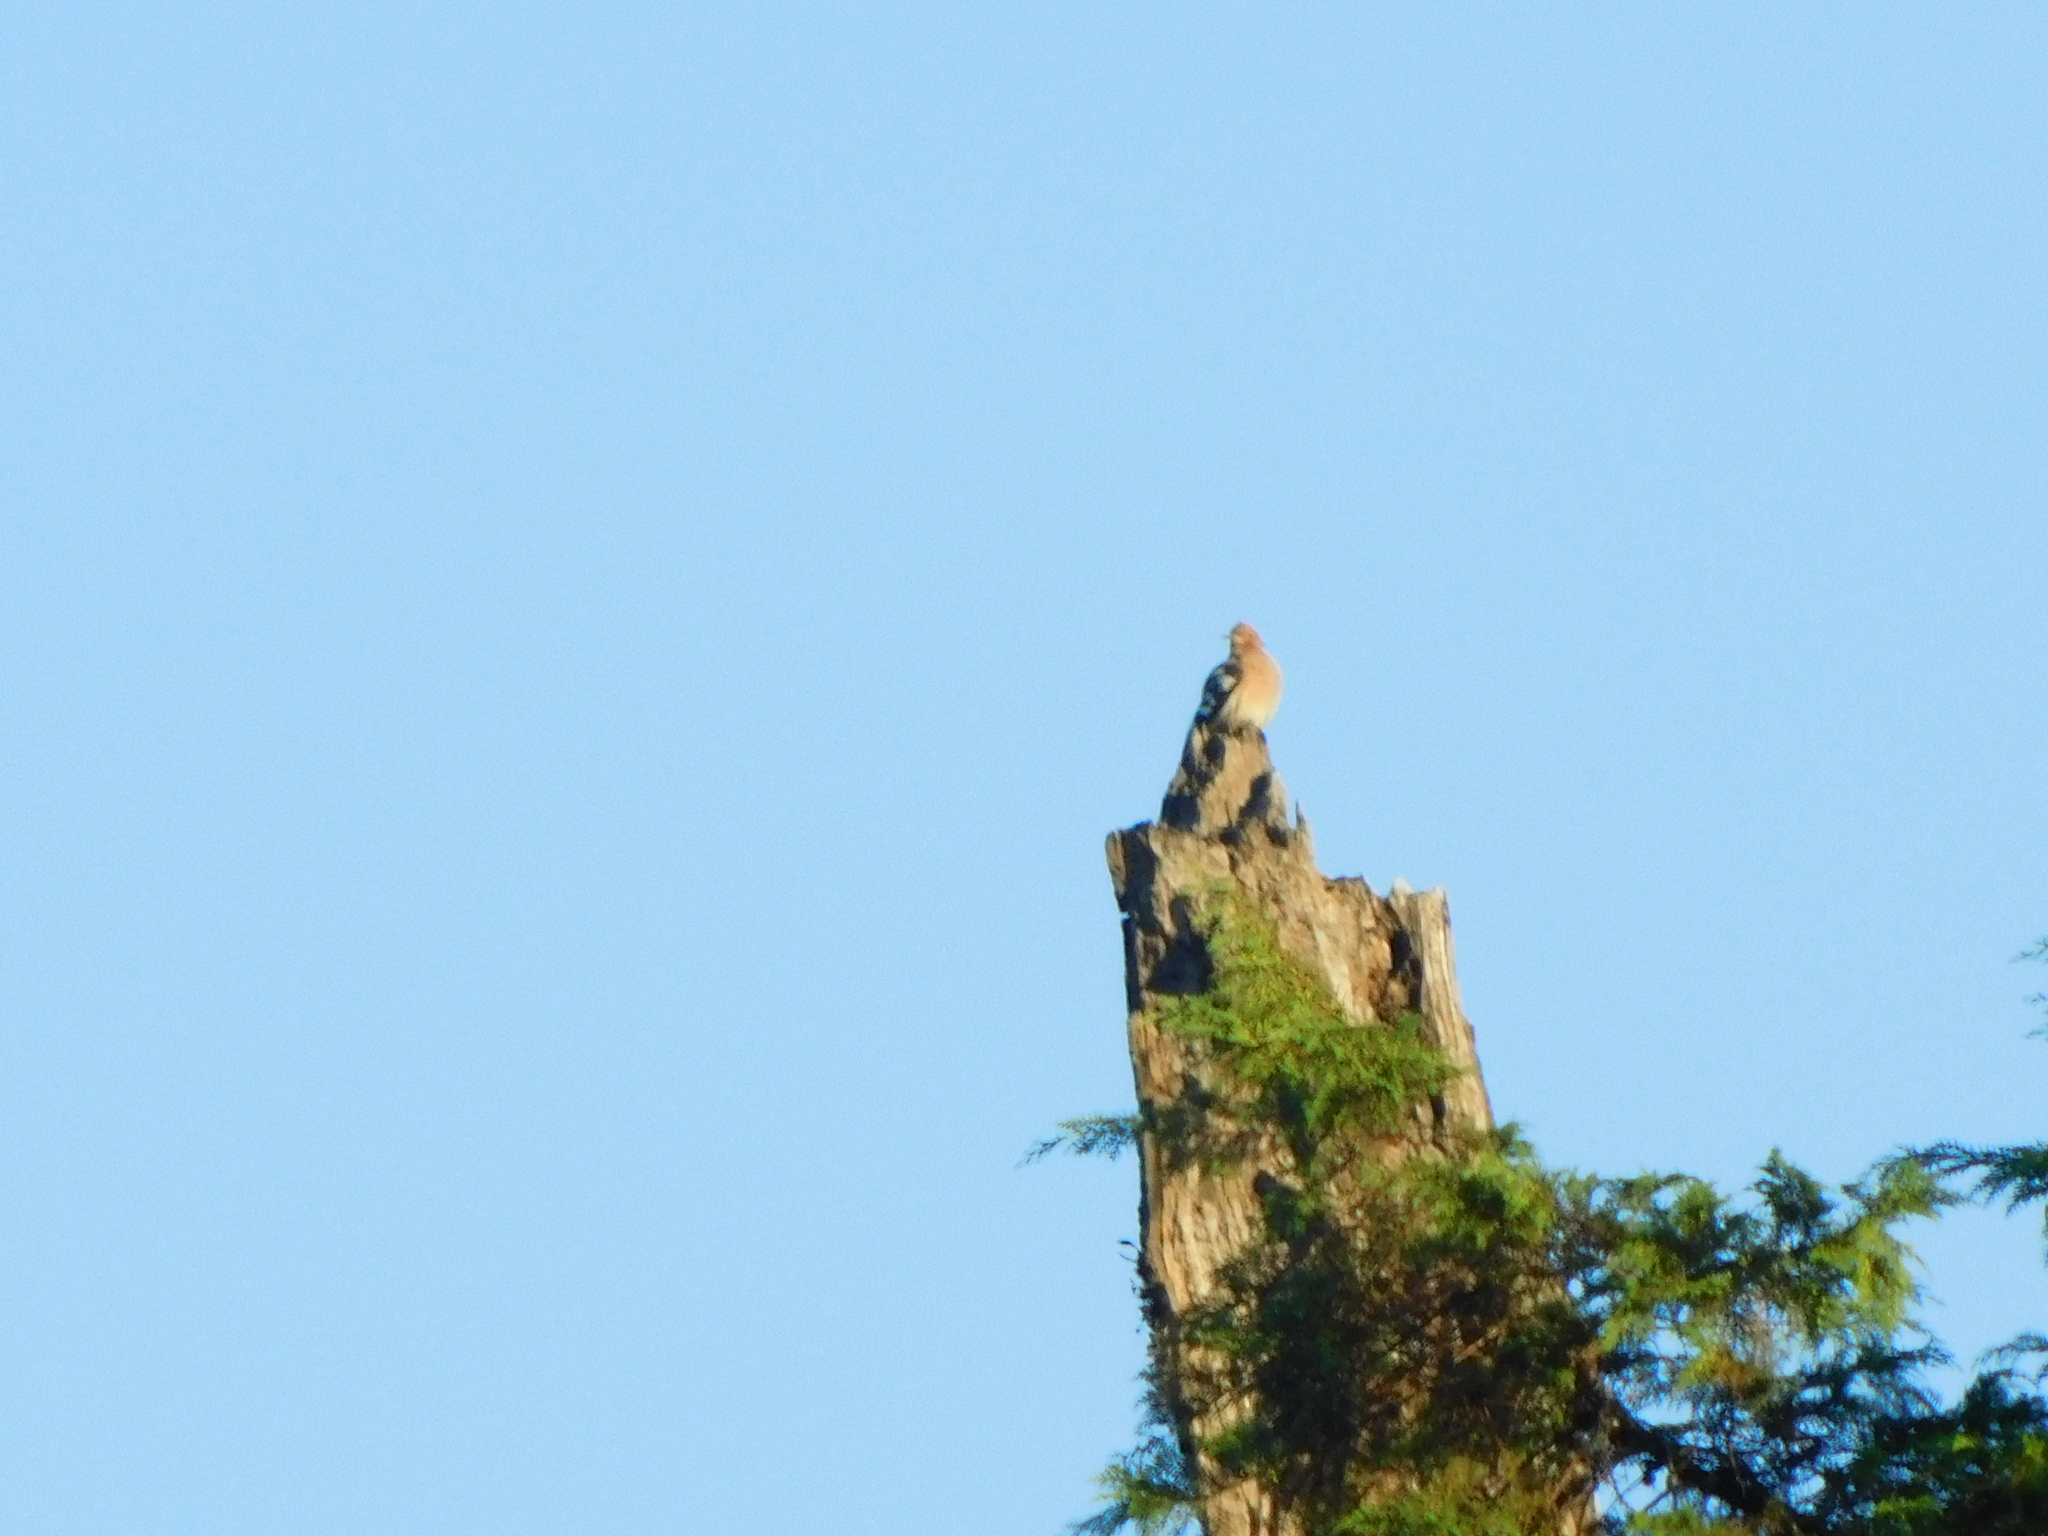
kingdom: Animalia
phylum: Chordata
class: Aves
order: Bucerotiformes
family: Upupidae
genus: Upupa
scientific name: Upupa epops
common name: Eurasian hoopoe
